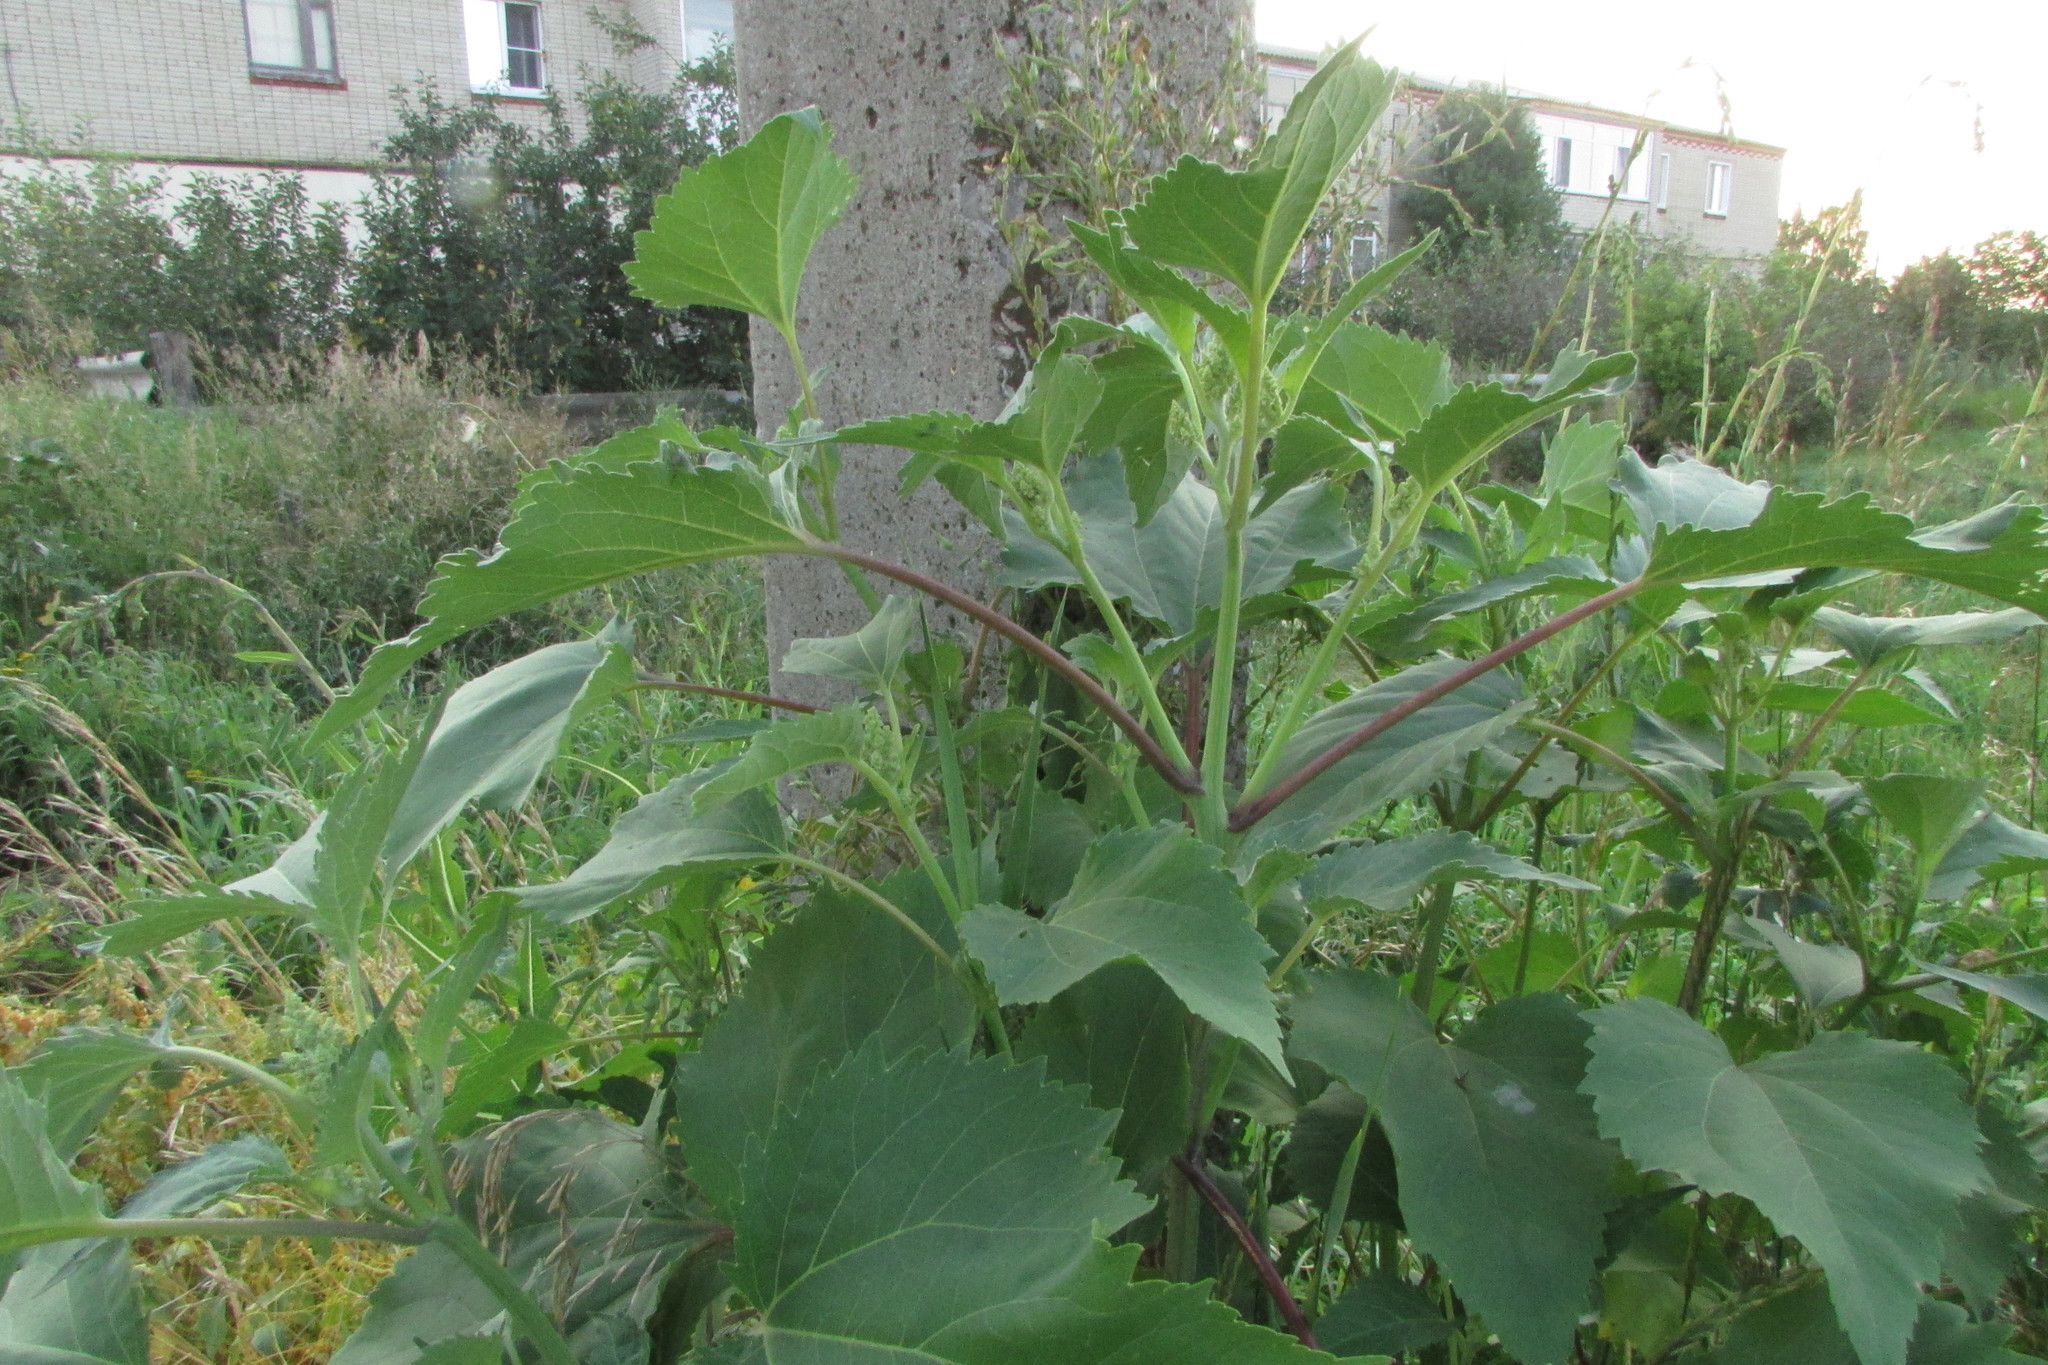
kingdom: Plantae
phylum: Tracheophyta
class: Magnoliopsida
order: Asterales
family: Asteraceae
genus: Cyclachaena
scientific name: Cyclachaena xanthiifolia
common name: Giant sumpweed
